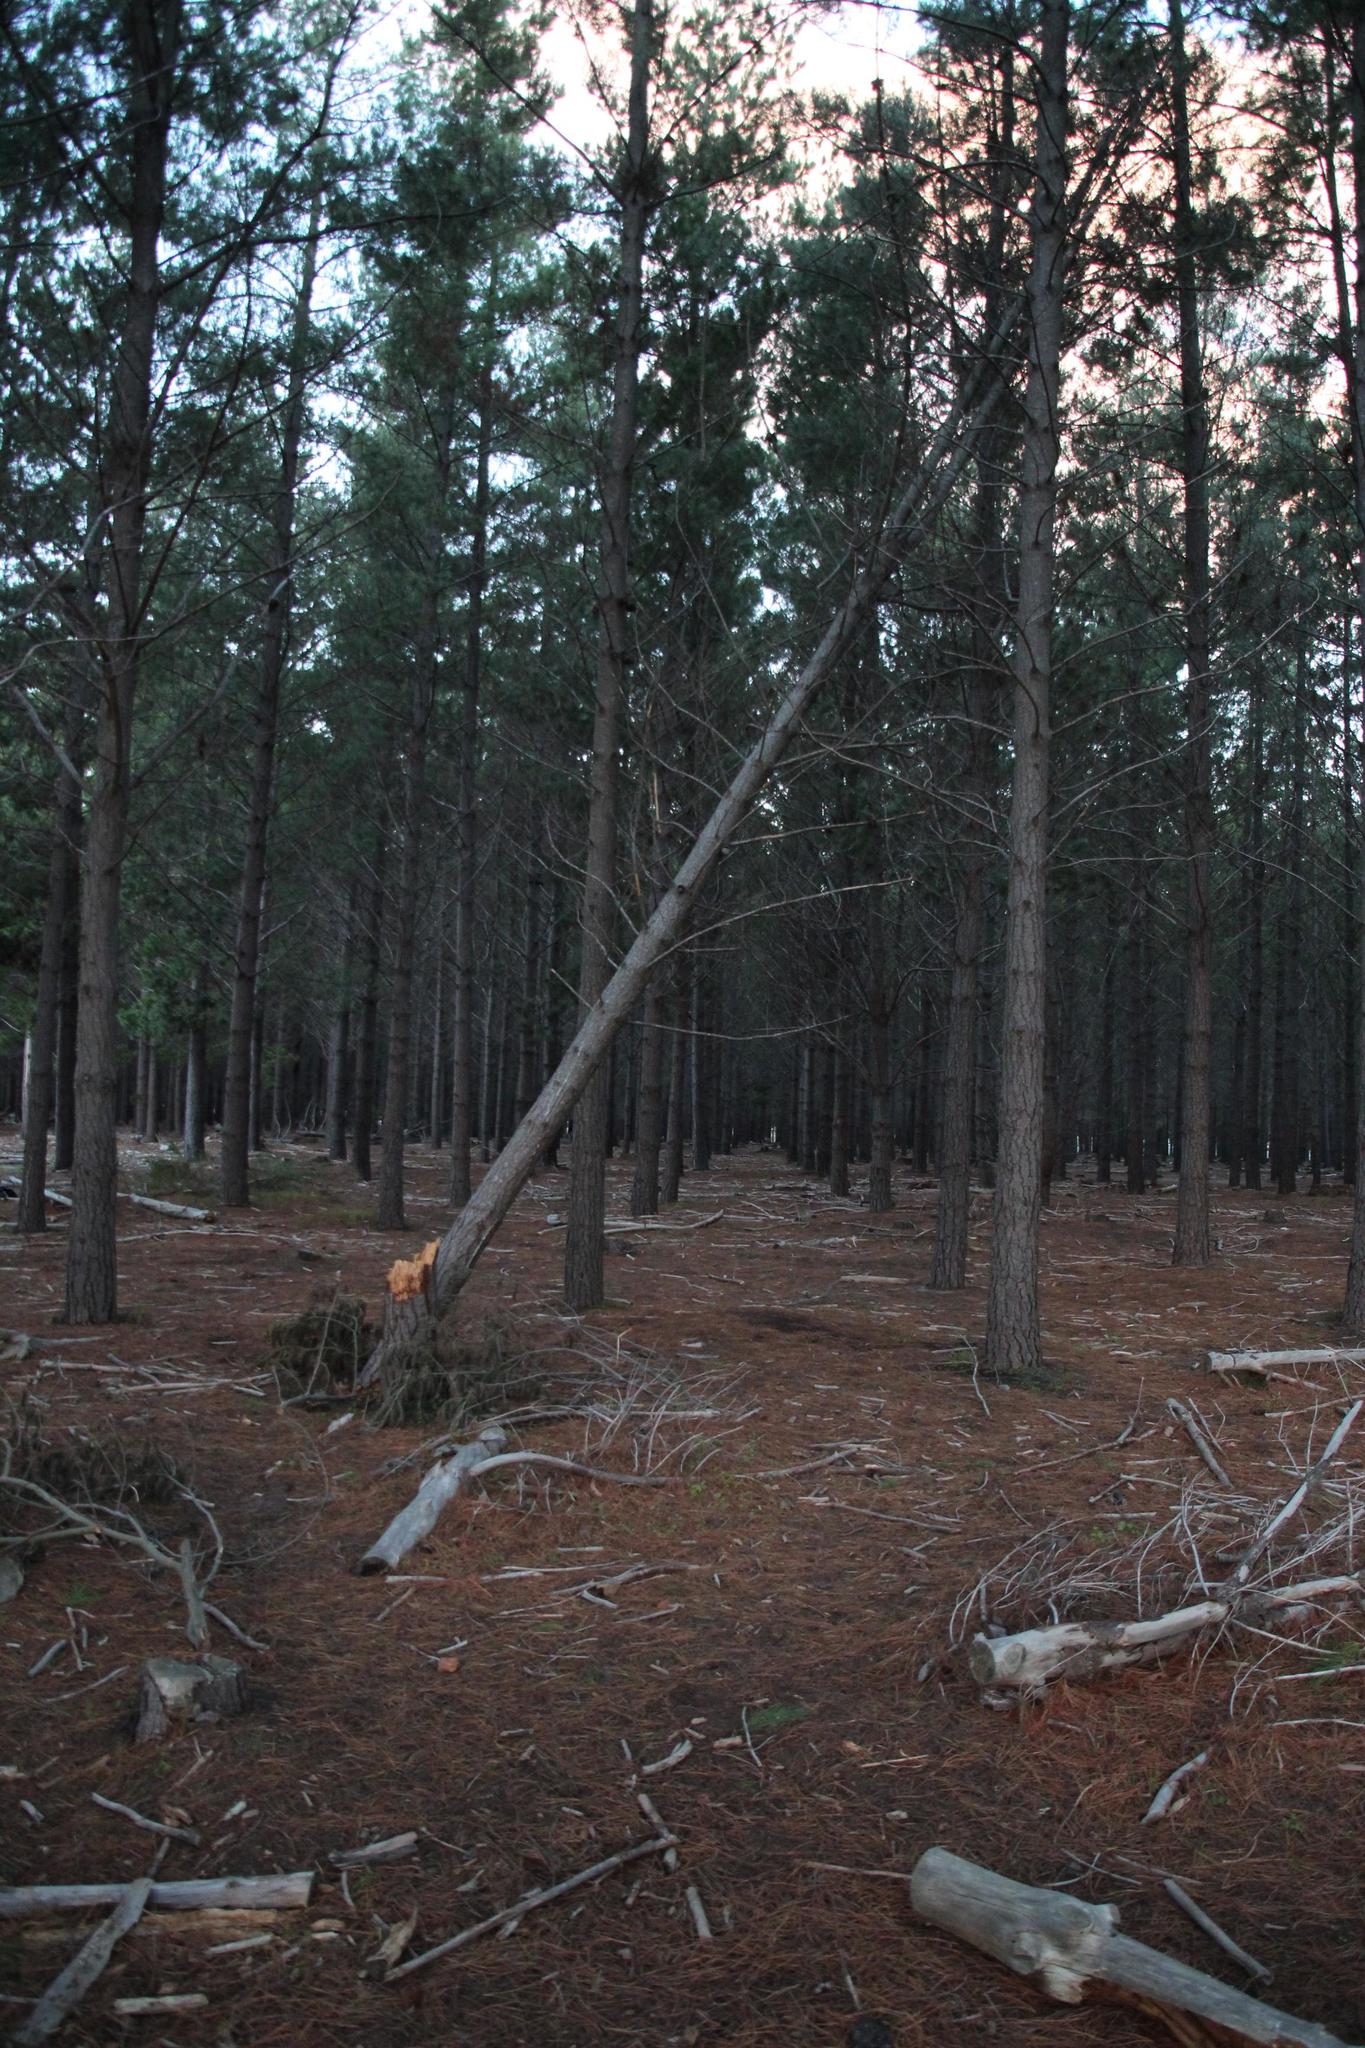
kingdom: Plantae
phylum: Tracheophyta
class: Pinopsida
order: Pinales
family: Pinaceae
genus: Pinus
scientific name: Pinus radiata
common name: Monterey pine
